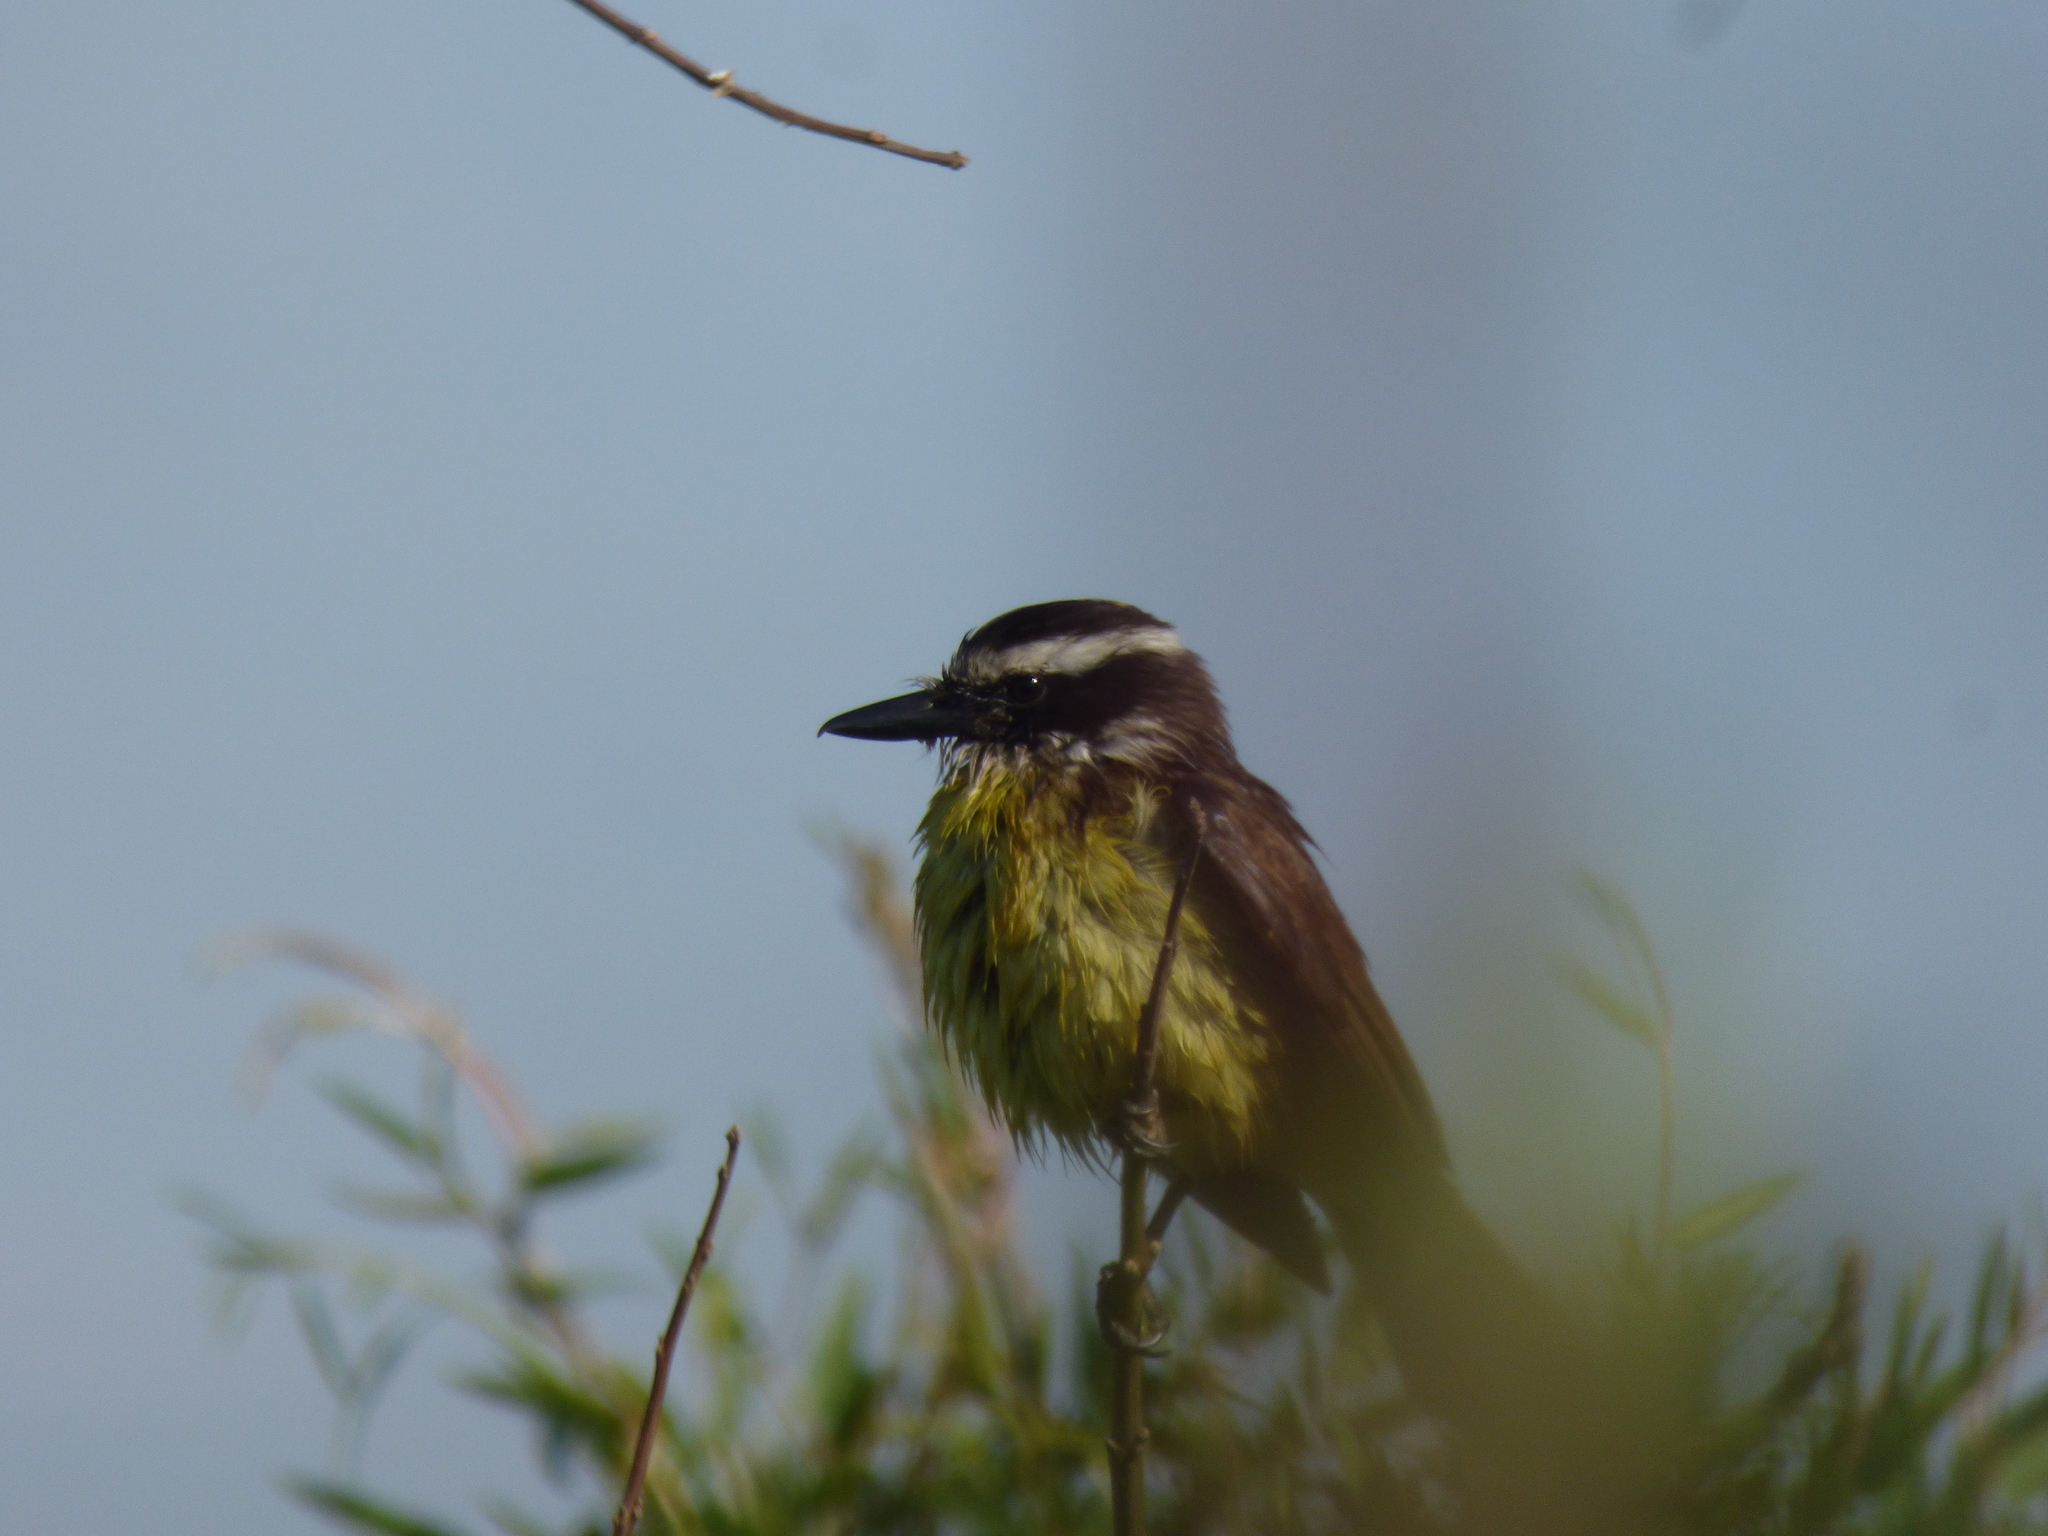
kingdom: Animalia
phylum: Chordata
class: Aves
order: Passeriformes
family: Tyrannidae
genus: Pitangus
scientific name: Pitangus sulphuratus
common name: Great kiskadee
